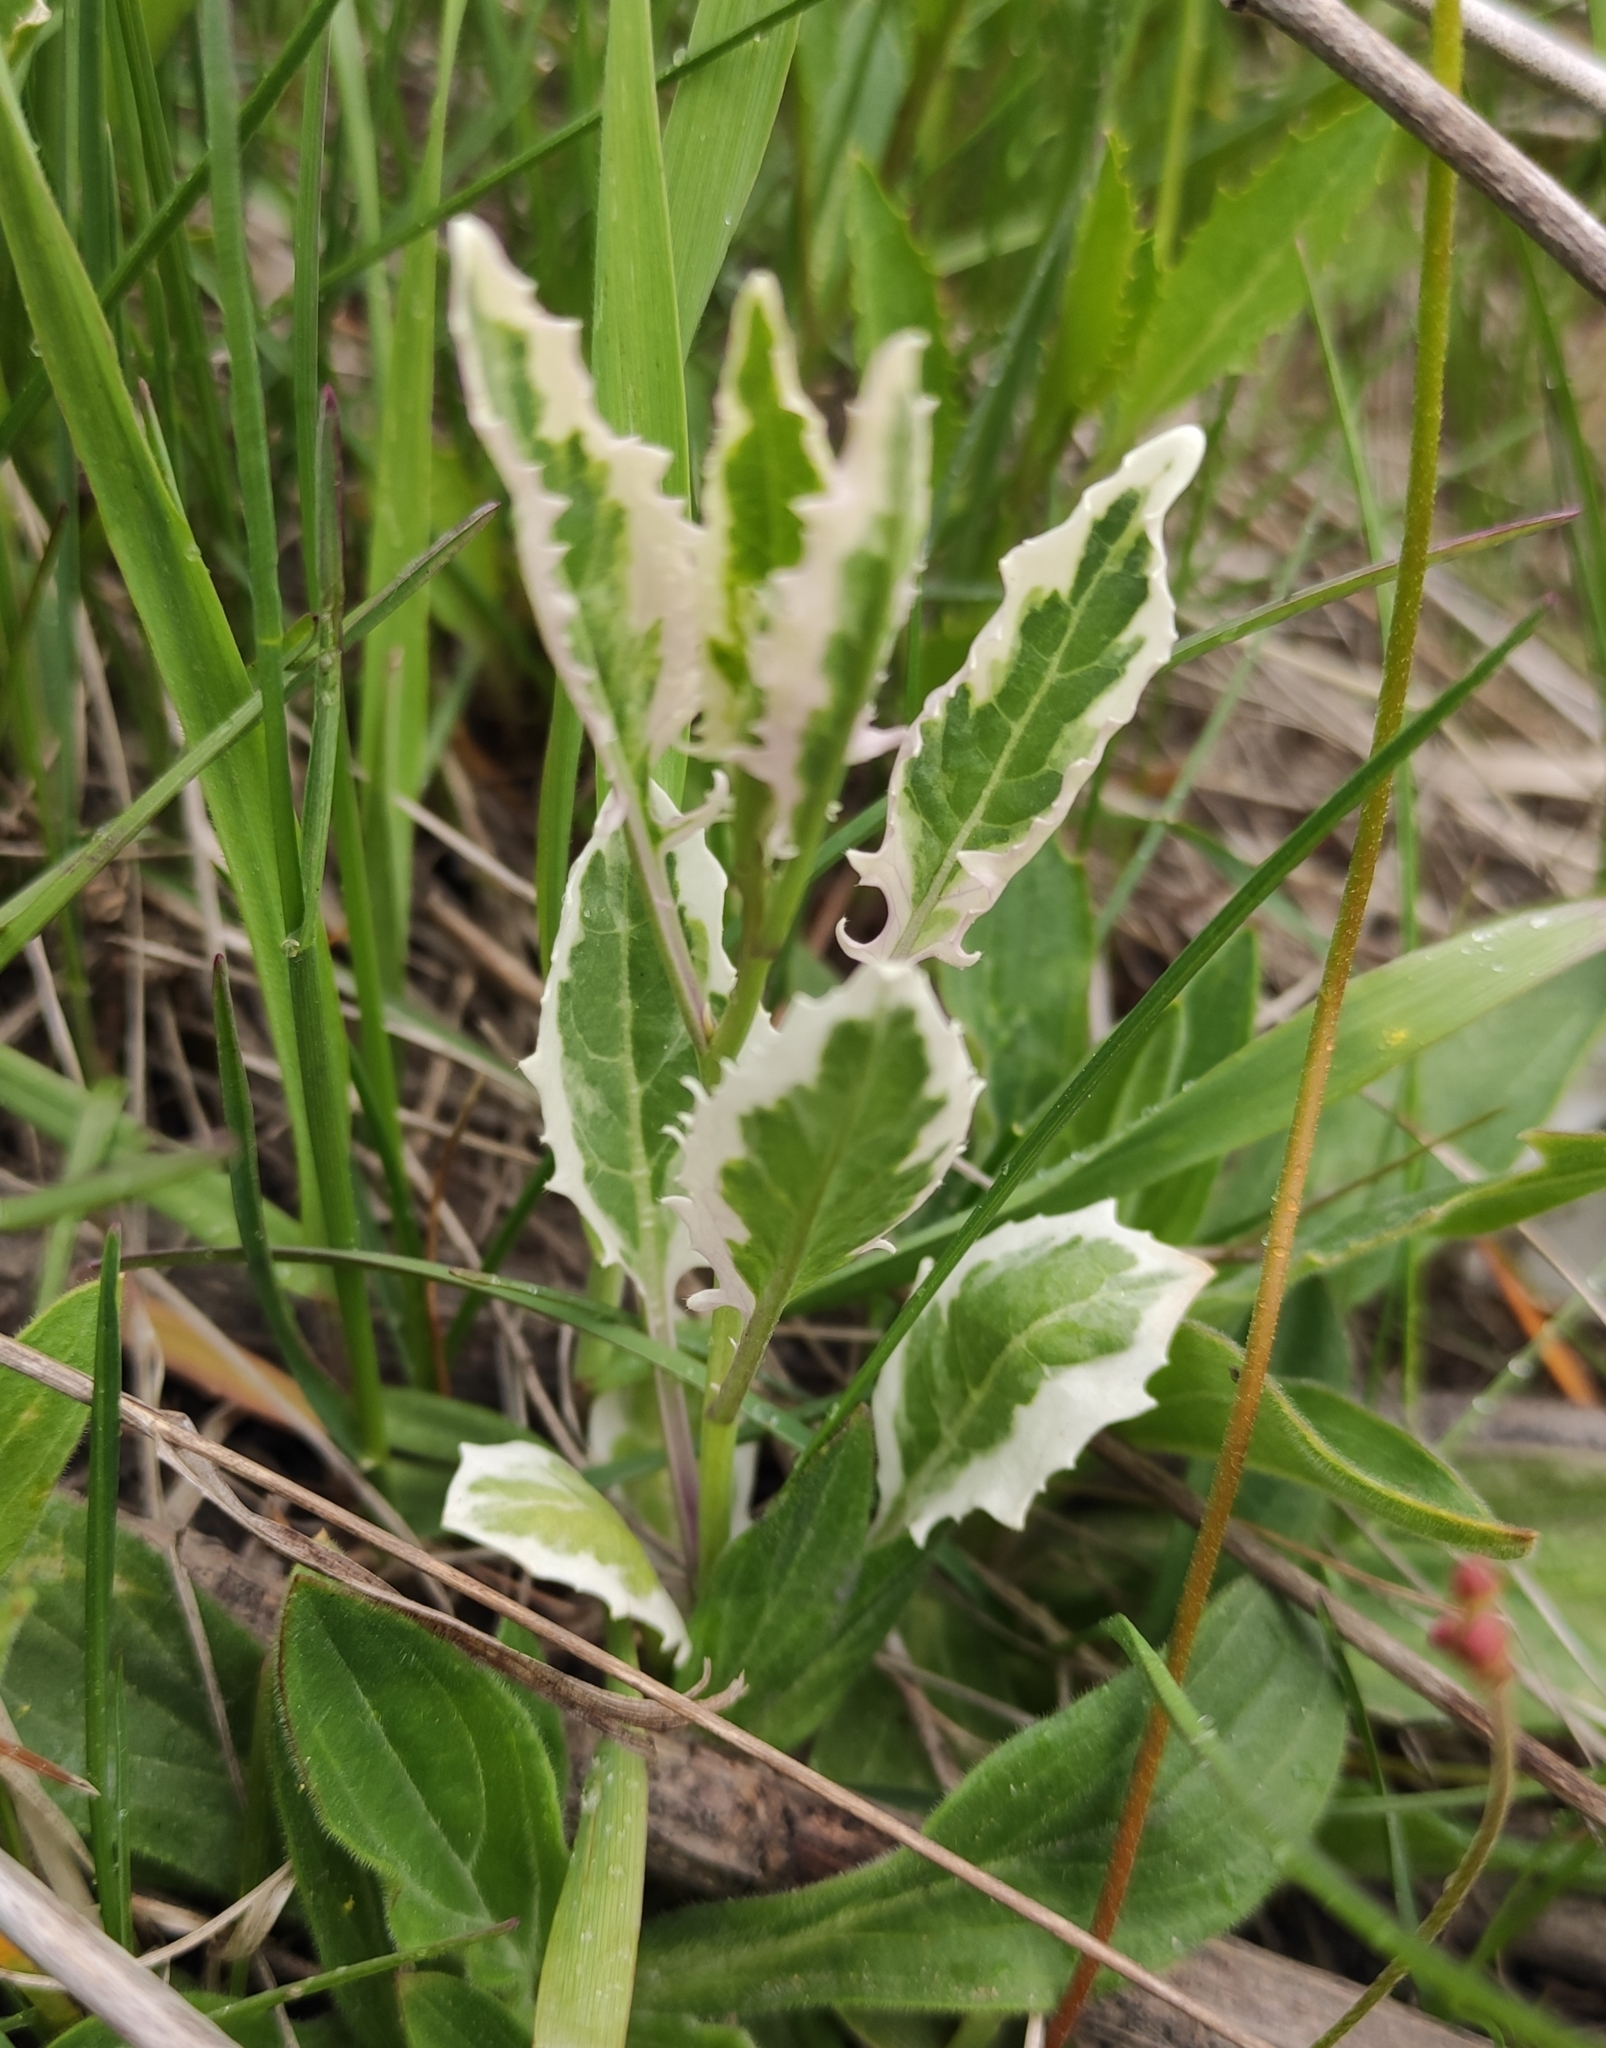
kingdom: Plantae
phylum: Tracheophyta
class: Magnoliopsida
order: Brassicales
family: Brassicaceae
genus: Sisymbrium
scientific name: Sisymbrium volgense
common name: Russian mustard
